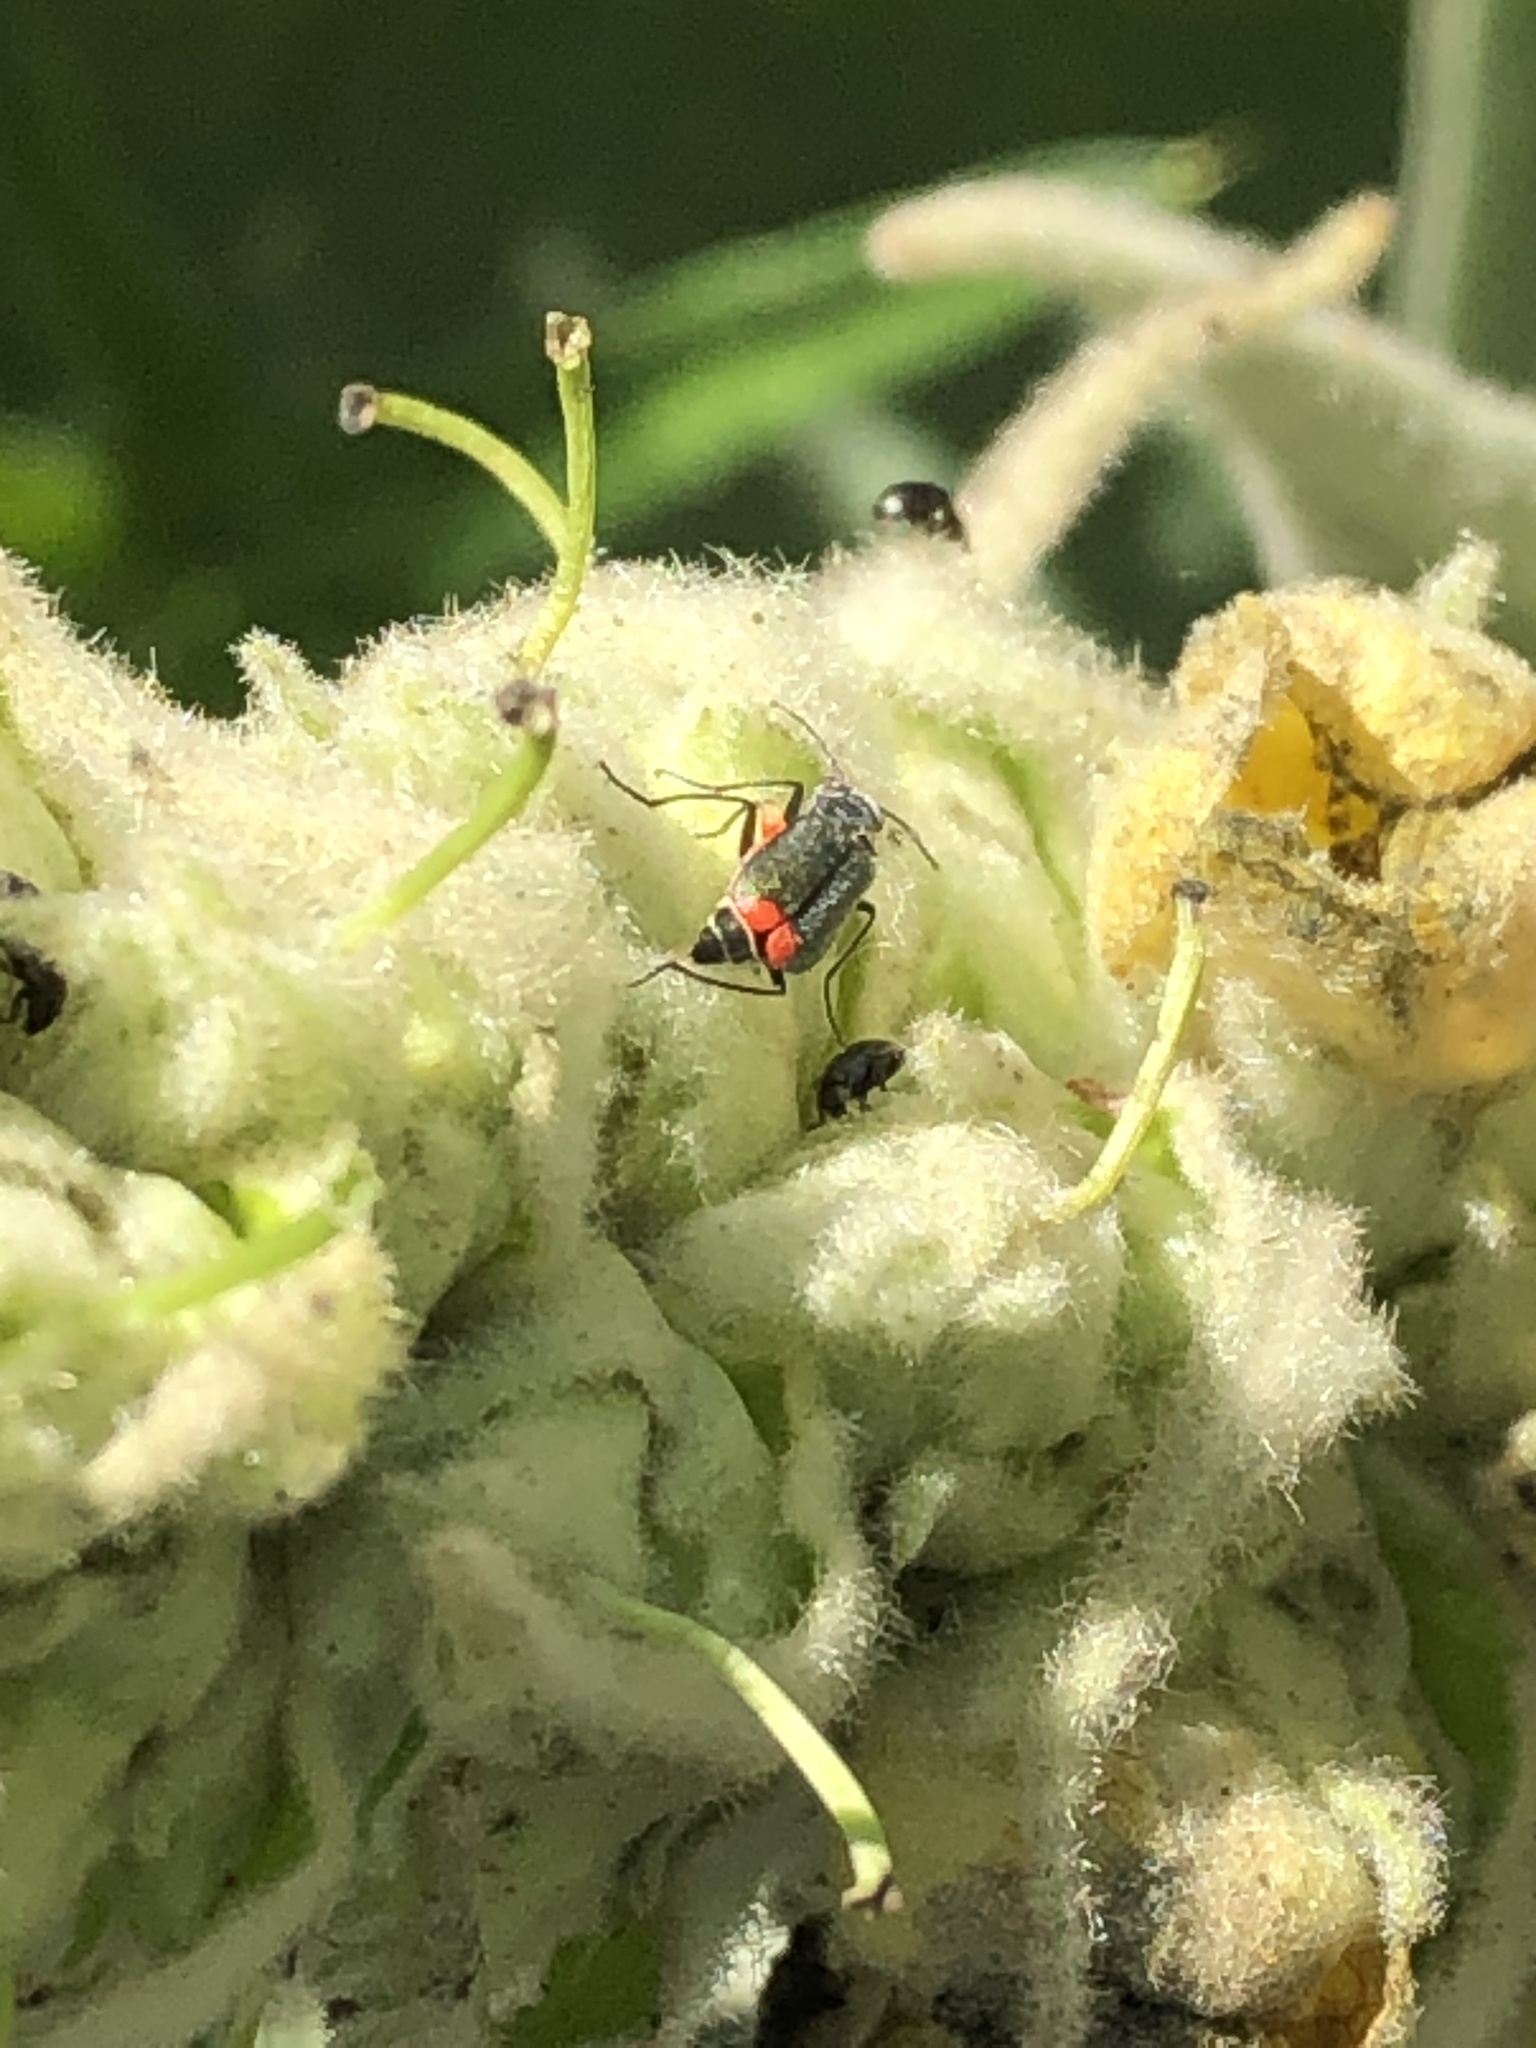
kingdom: Animalia
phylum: Arthropoda
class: Insecta
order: Coleoptera
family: Melyridae
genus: Malachius
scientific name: Malachius bipustulatus
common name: Malachite beetle
